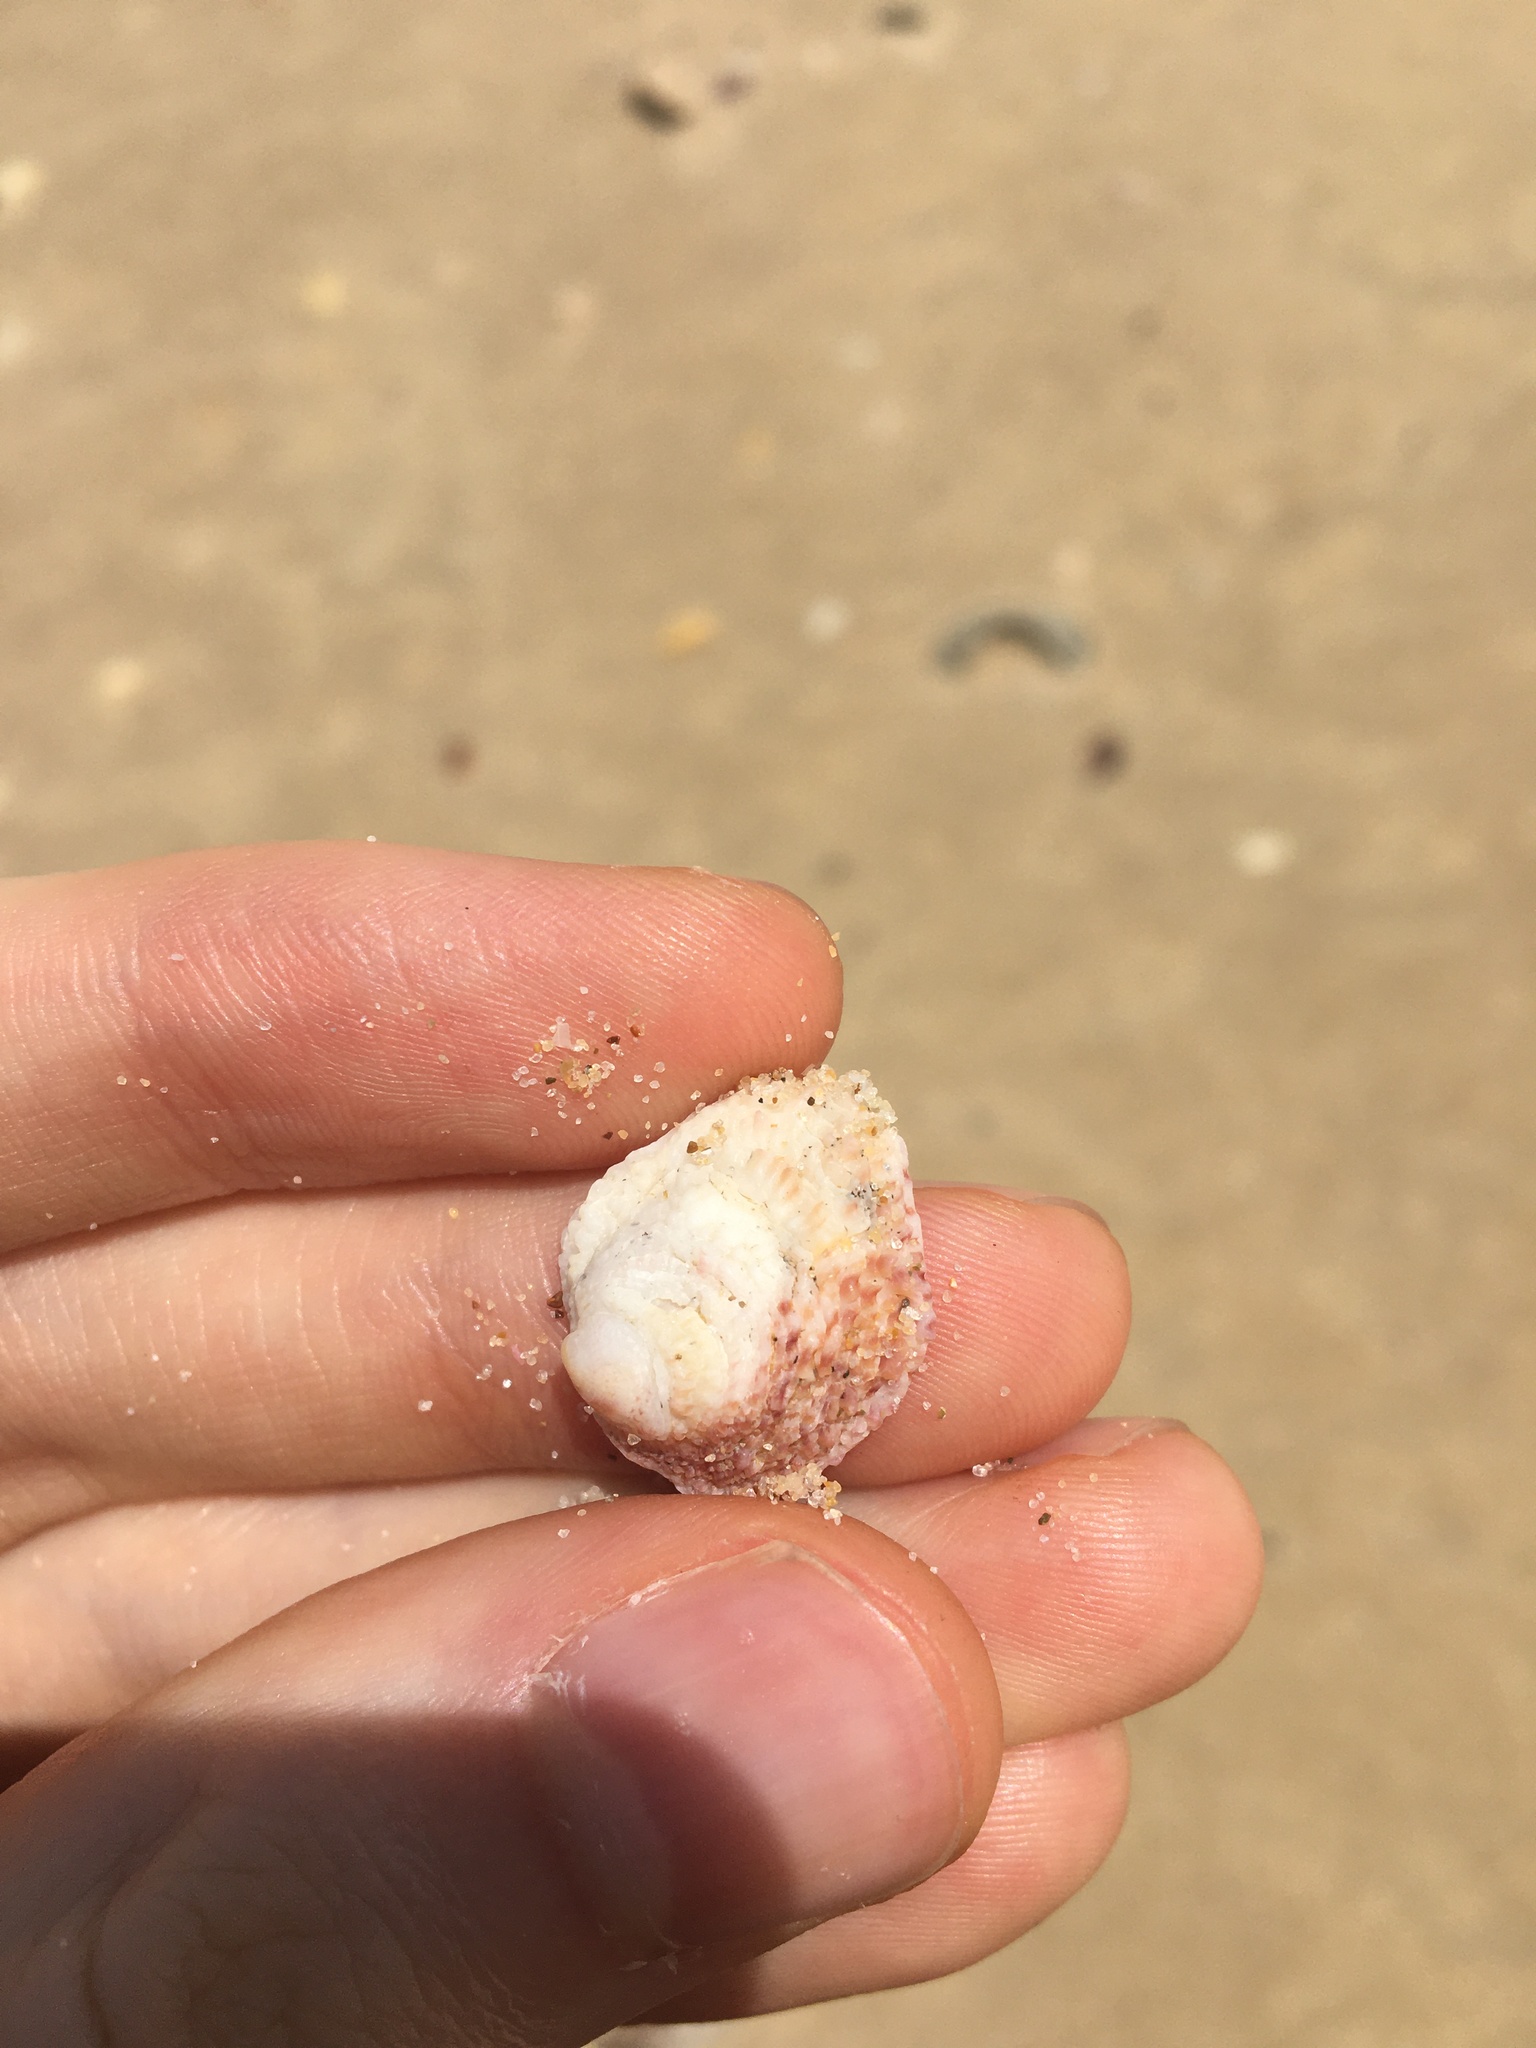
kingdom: Animalia
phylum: Mollusca
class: Bivalvia
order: Venerida
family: Chamidae
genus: Chama
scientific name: Chama asperella
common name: Mollusca
